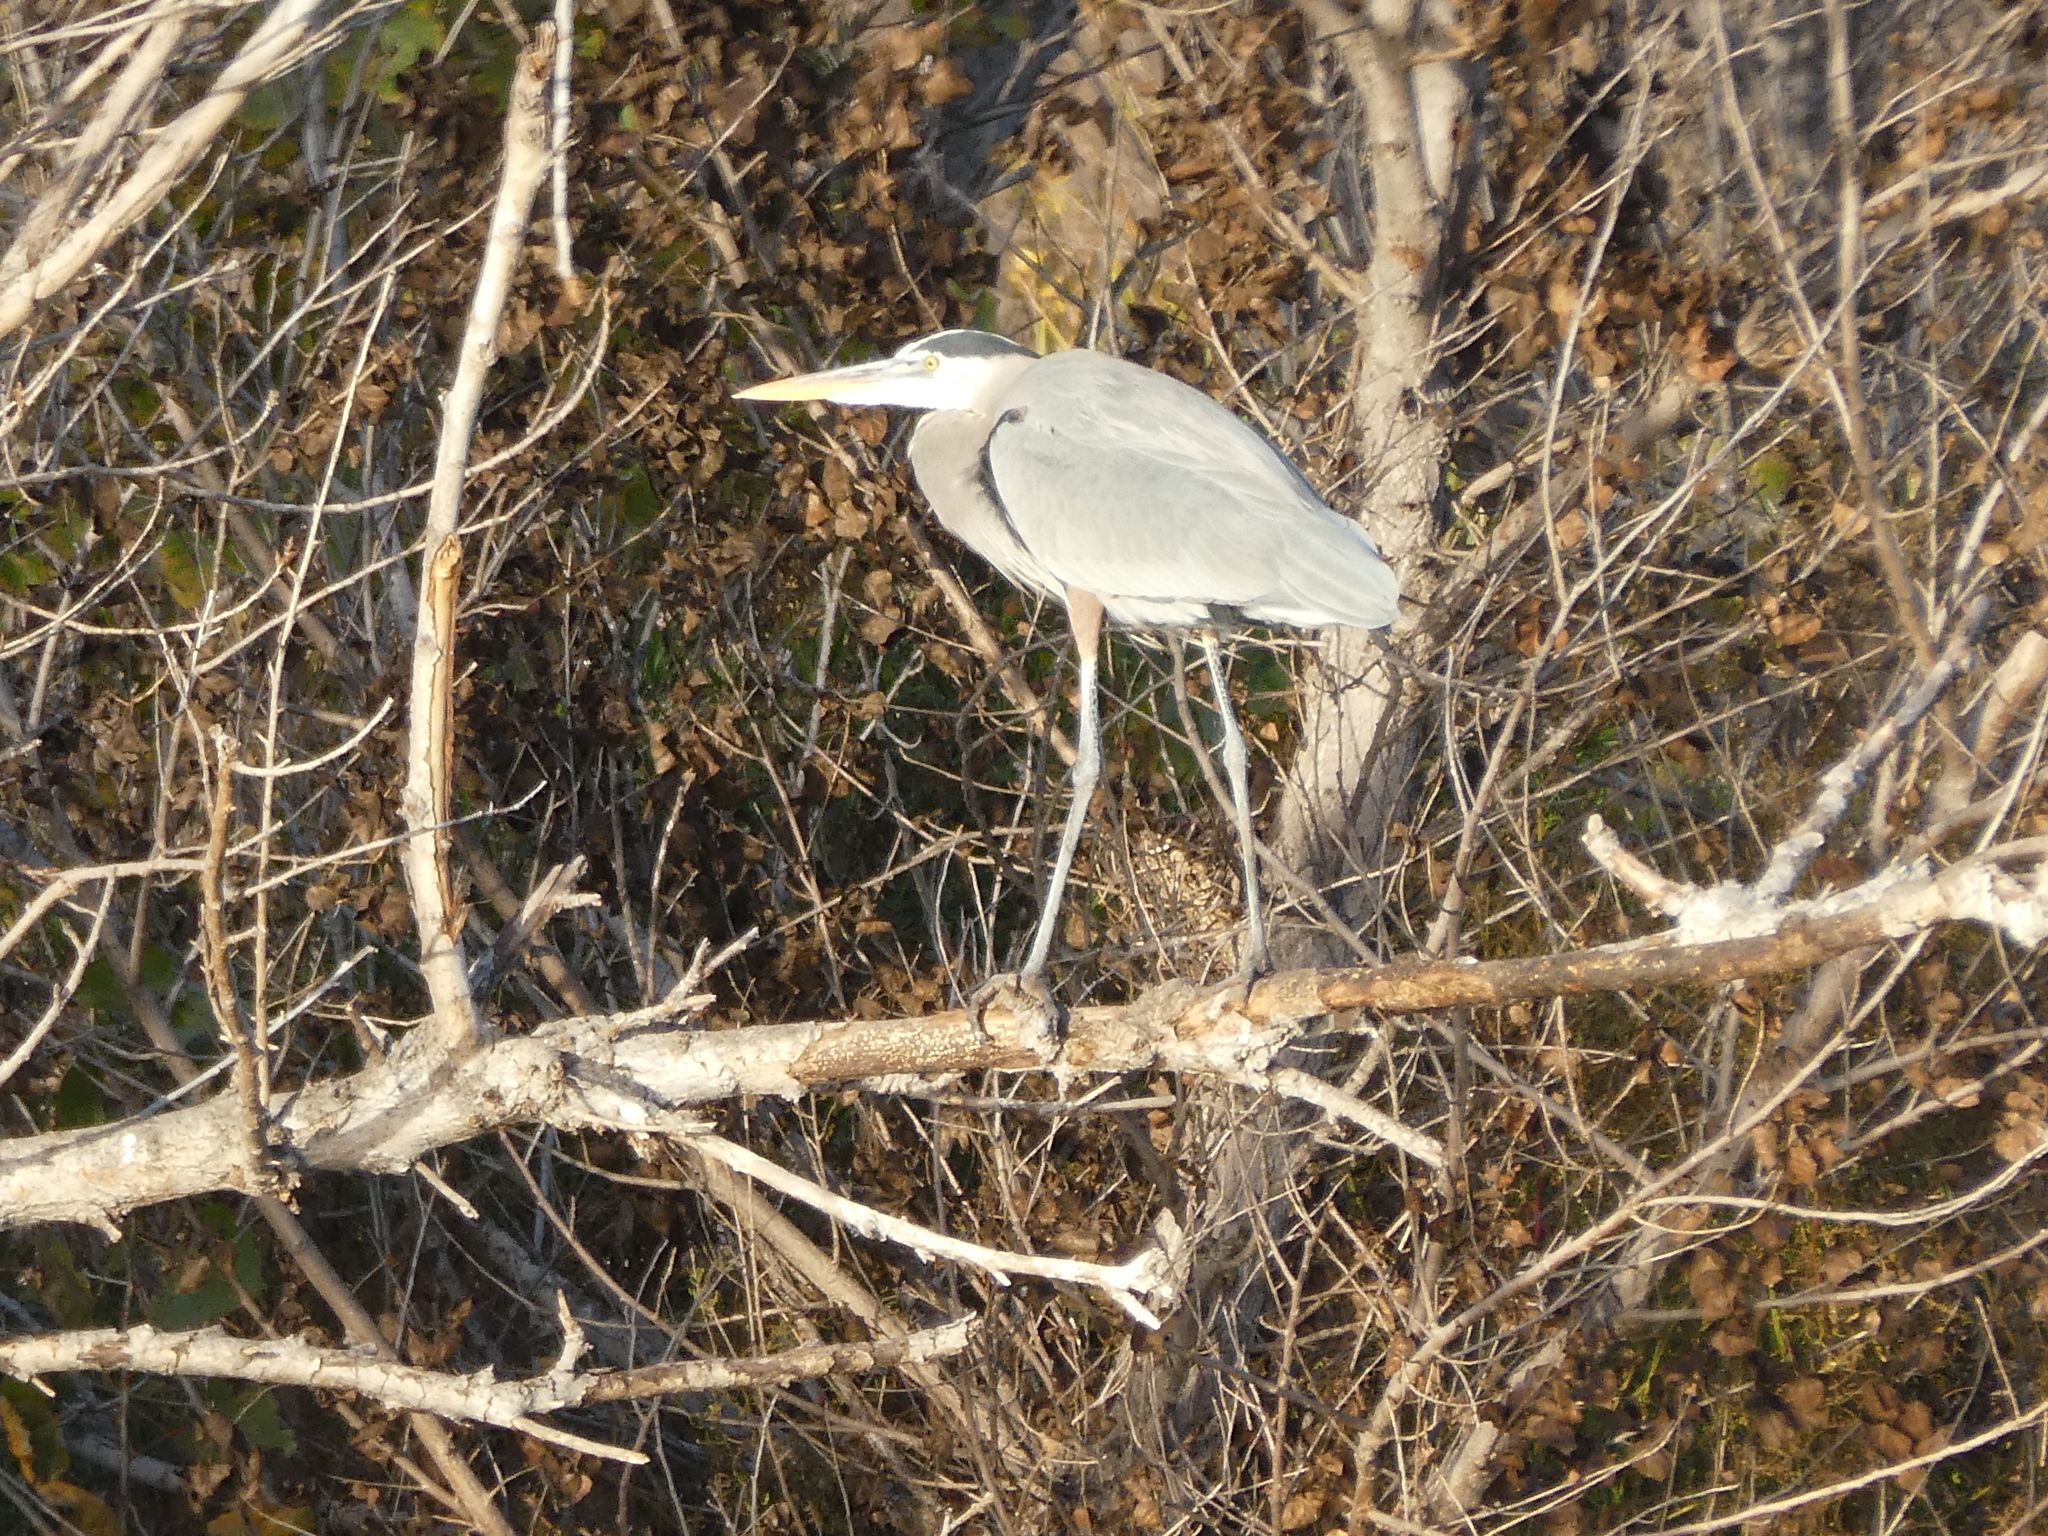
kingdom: Animalia
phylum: Chordata
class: Aves
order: Pelecaniformes
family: Ardeidae
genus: Ardea
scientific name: Ardea herodias
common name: Great blue heron
